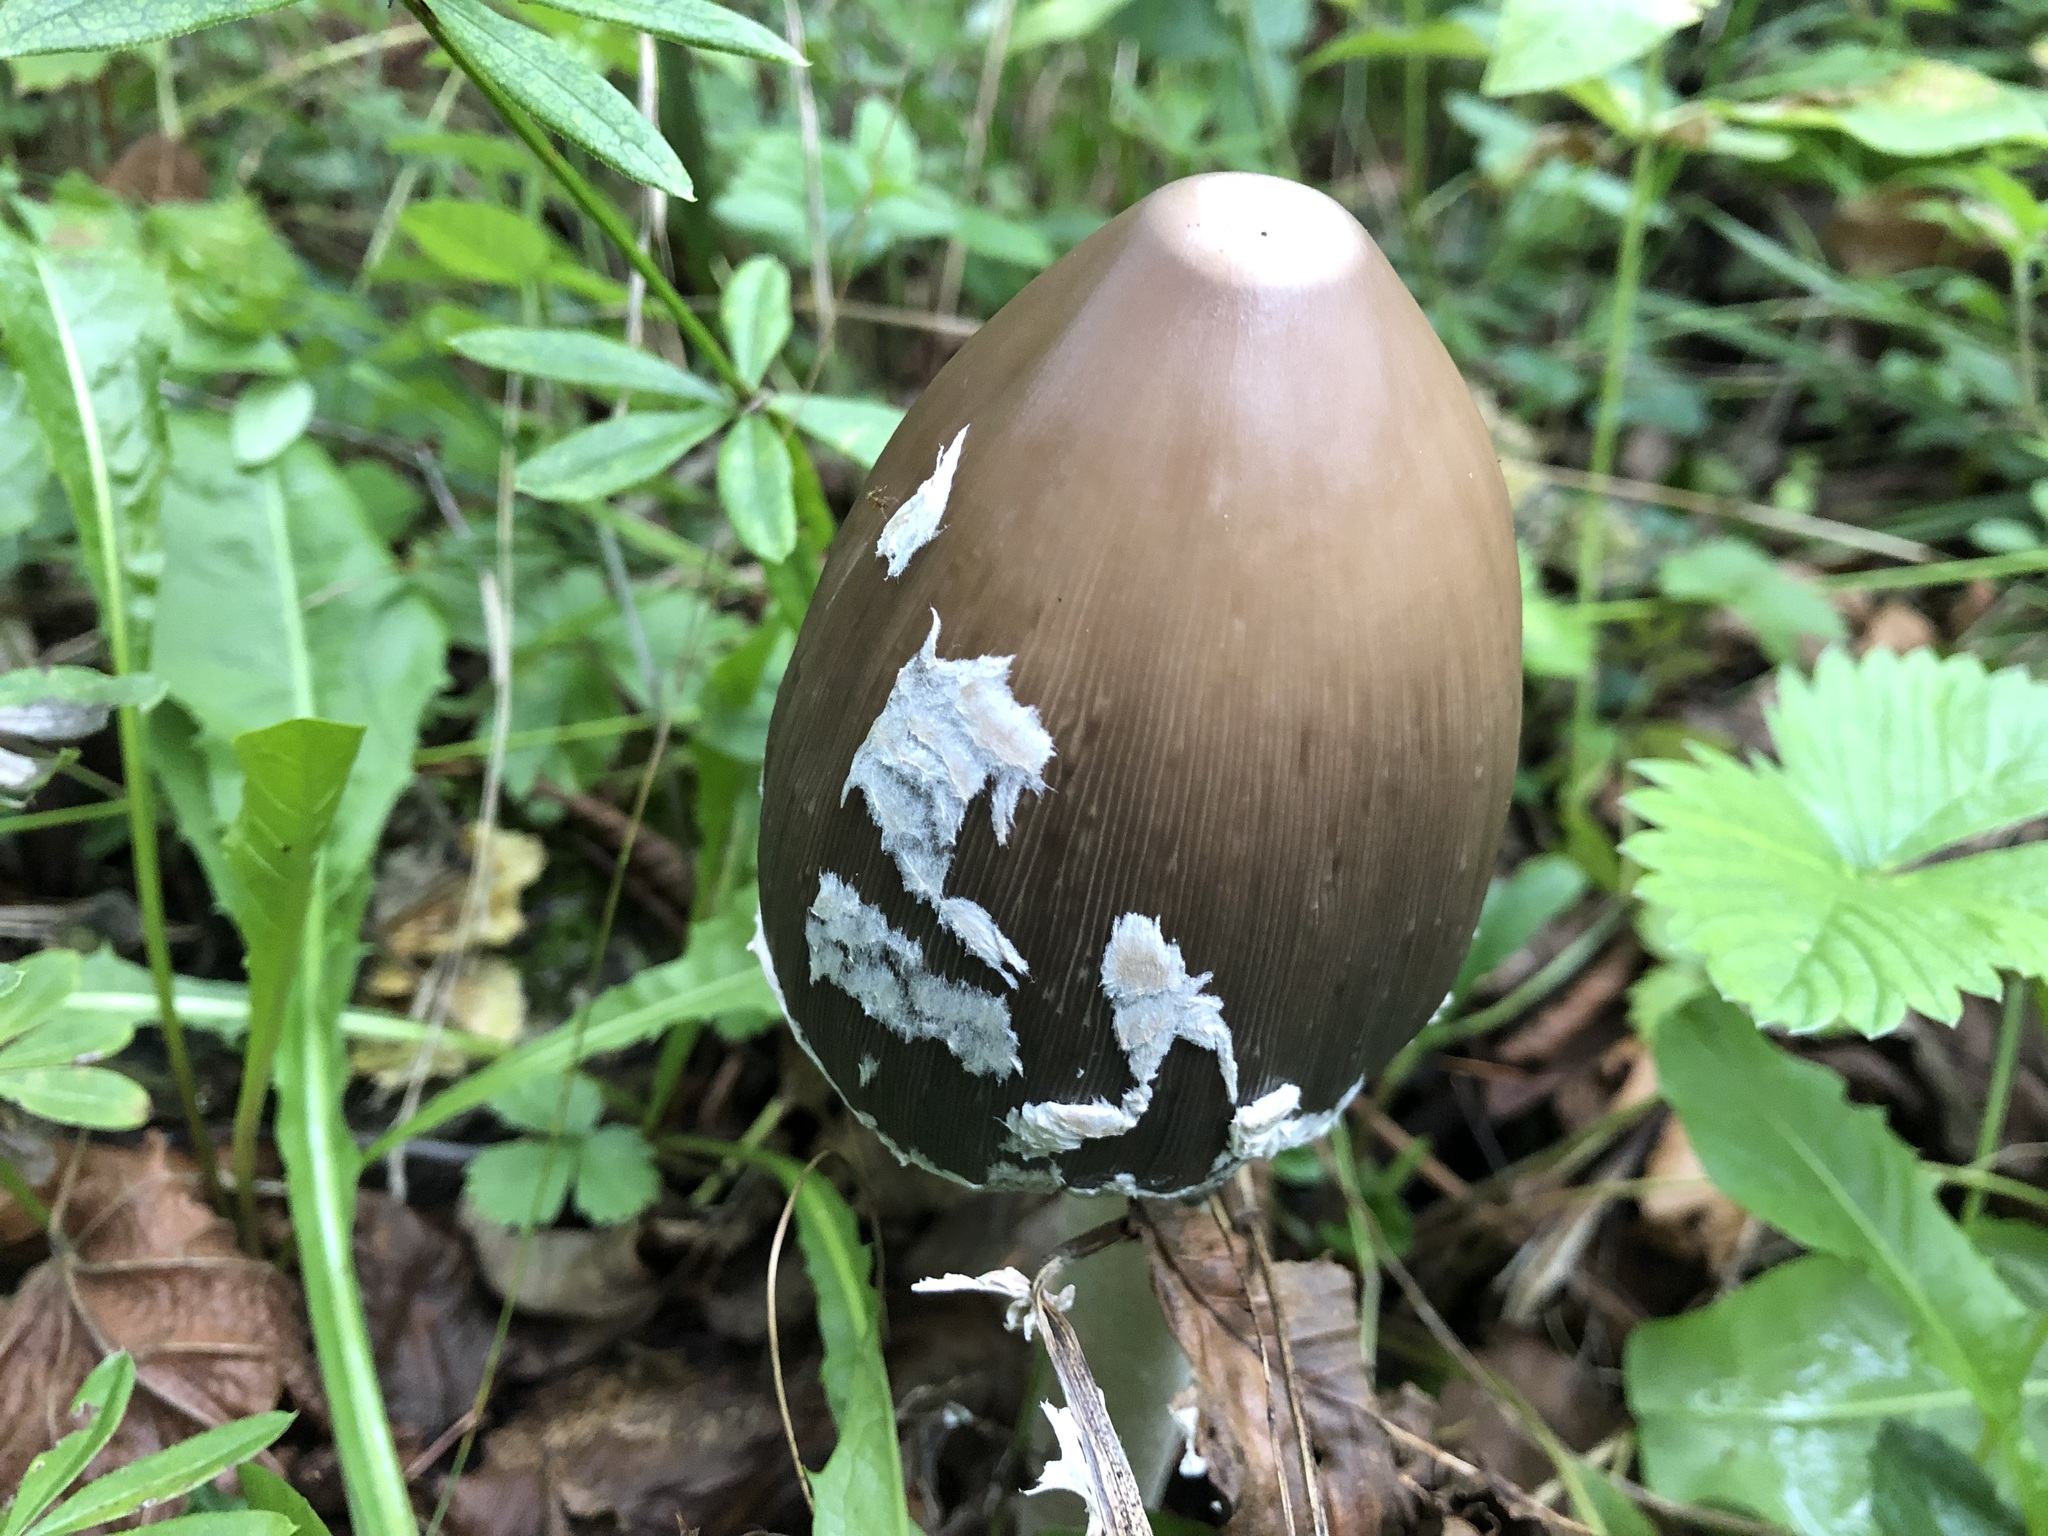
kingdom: Fungi
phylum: Basidiomycota
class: Agaricomycetes
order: Agaricales
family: Psathyrellaceae
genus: Coprinopsis
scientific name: Coprinopsis picacea
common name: Magpie inkcap
